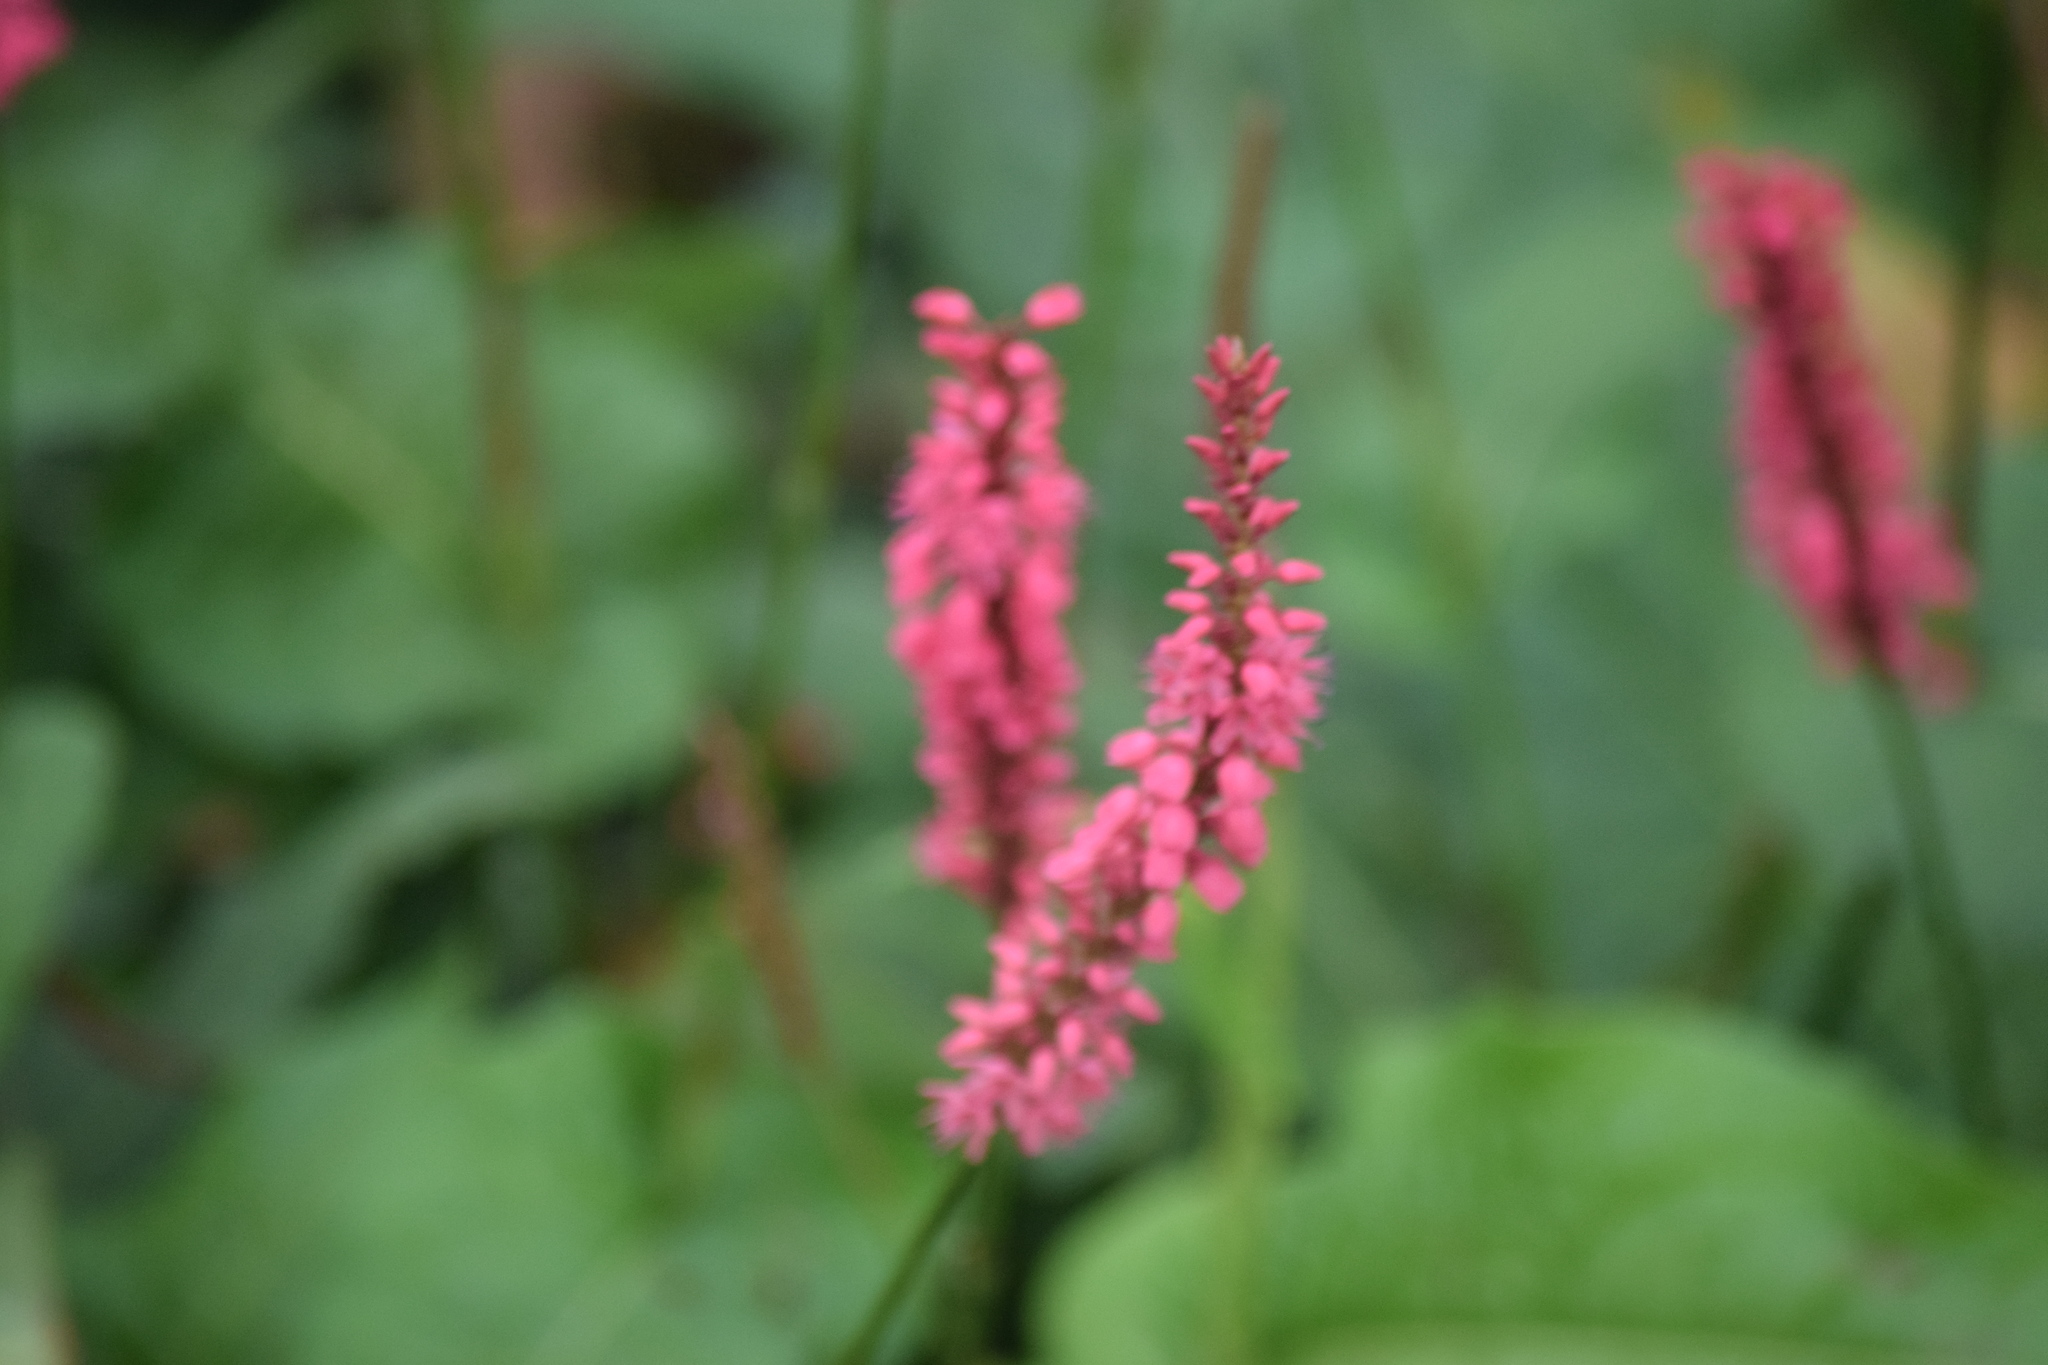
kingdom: Plantae
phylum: Tracheophyta
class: Magnoliopsida
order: Caryophyllales
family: Polygonaceae
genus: Bistorta
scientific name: Bistorta amplexicaulis
